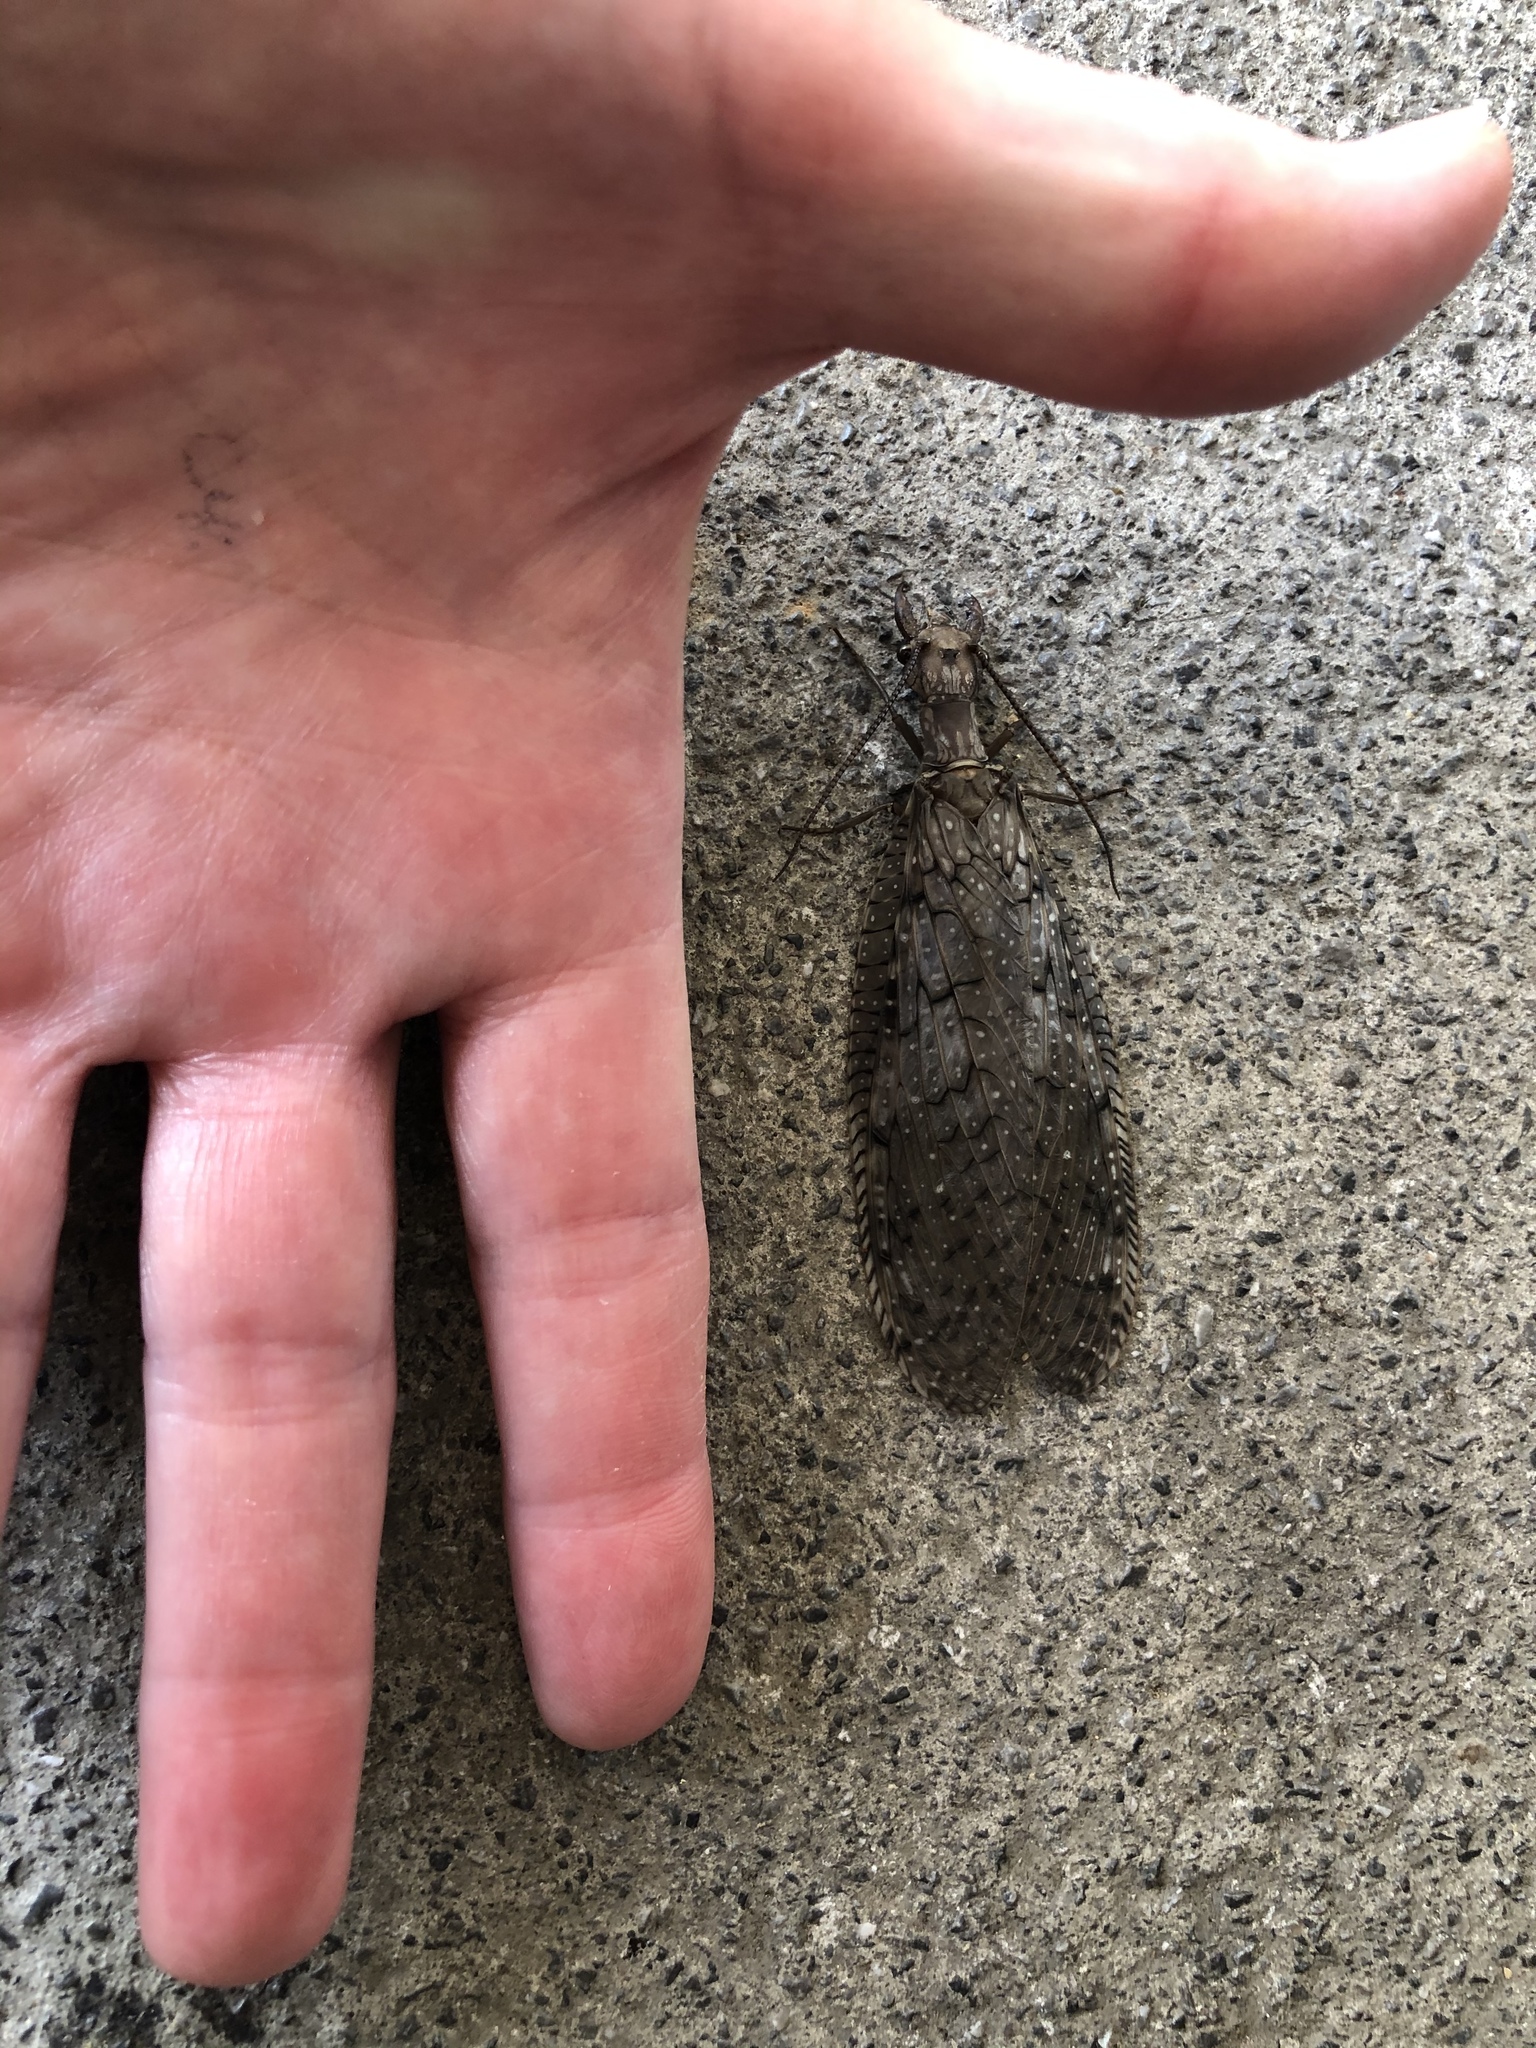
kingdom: Animalia
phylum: Arthropoda
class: Insecta
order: Megaloptera
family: Corydalidae
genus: Corydalus
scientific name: Corydalus cornutus
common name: Dobsonfly
